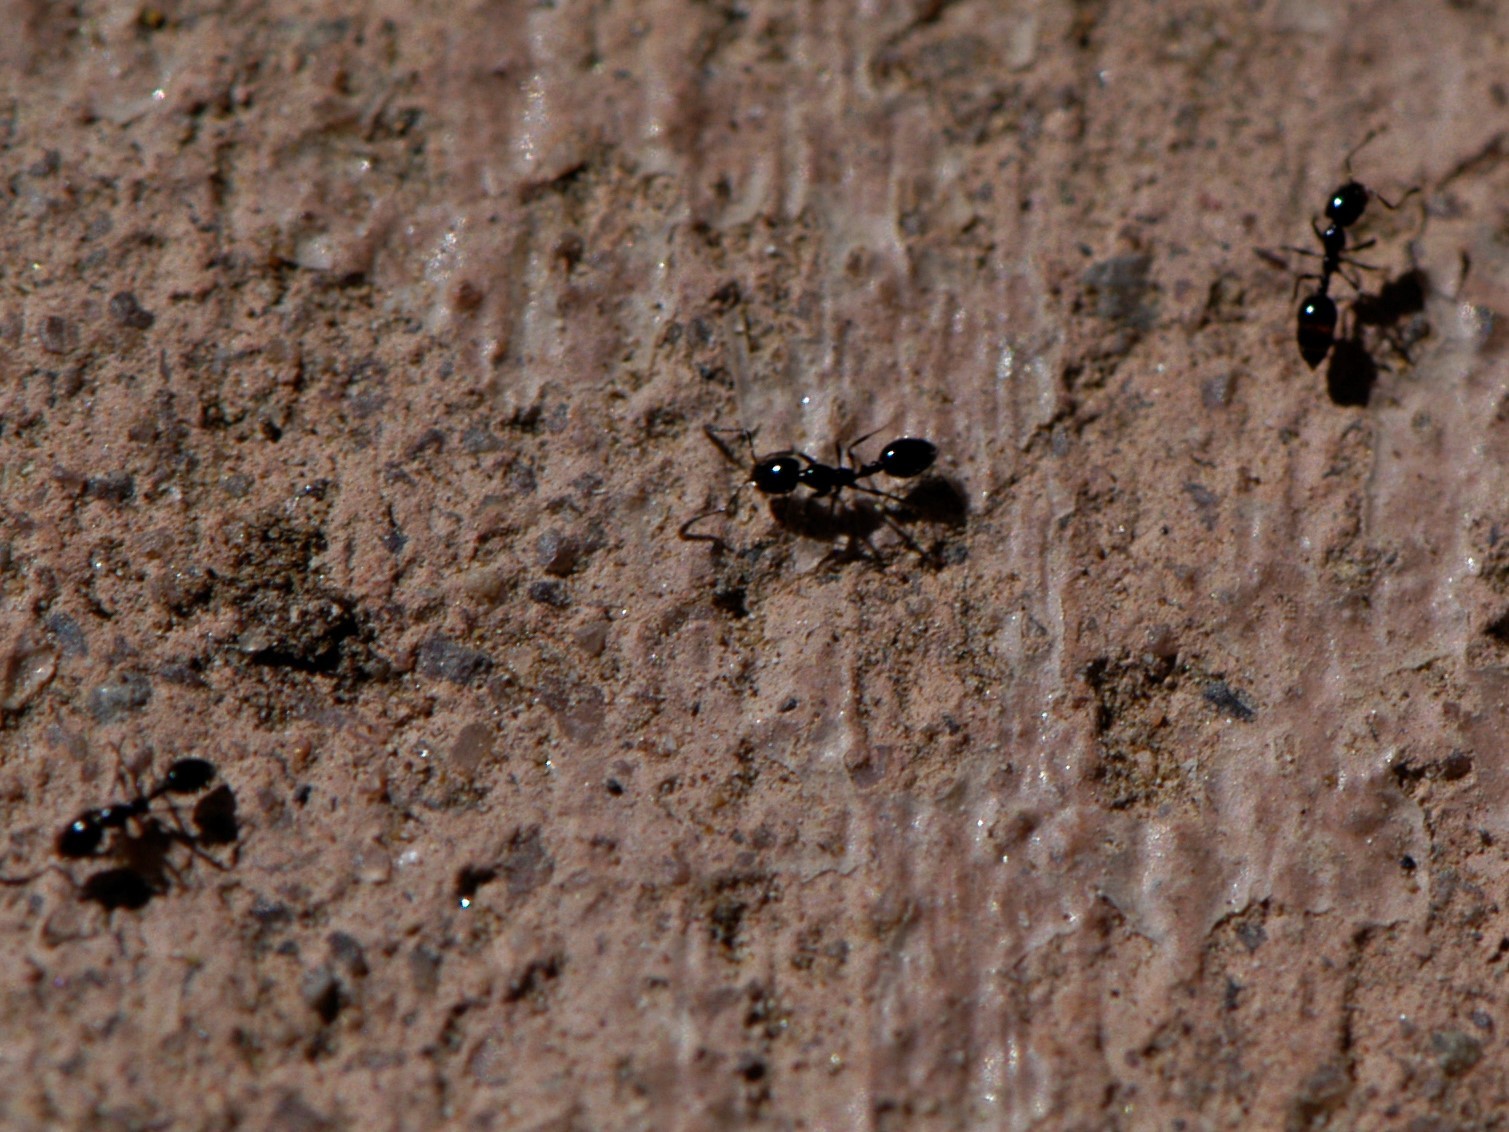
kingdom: Animalia
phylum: Arthropoda
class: Insecta
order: Hymenoptera
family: Formicidae
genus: Monomorium
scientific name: Monomorium minimum
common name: Little black ant
